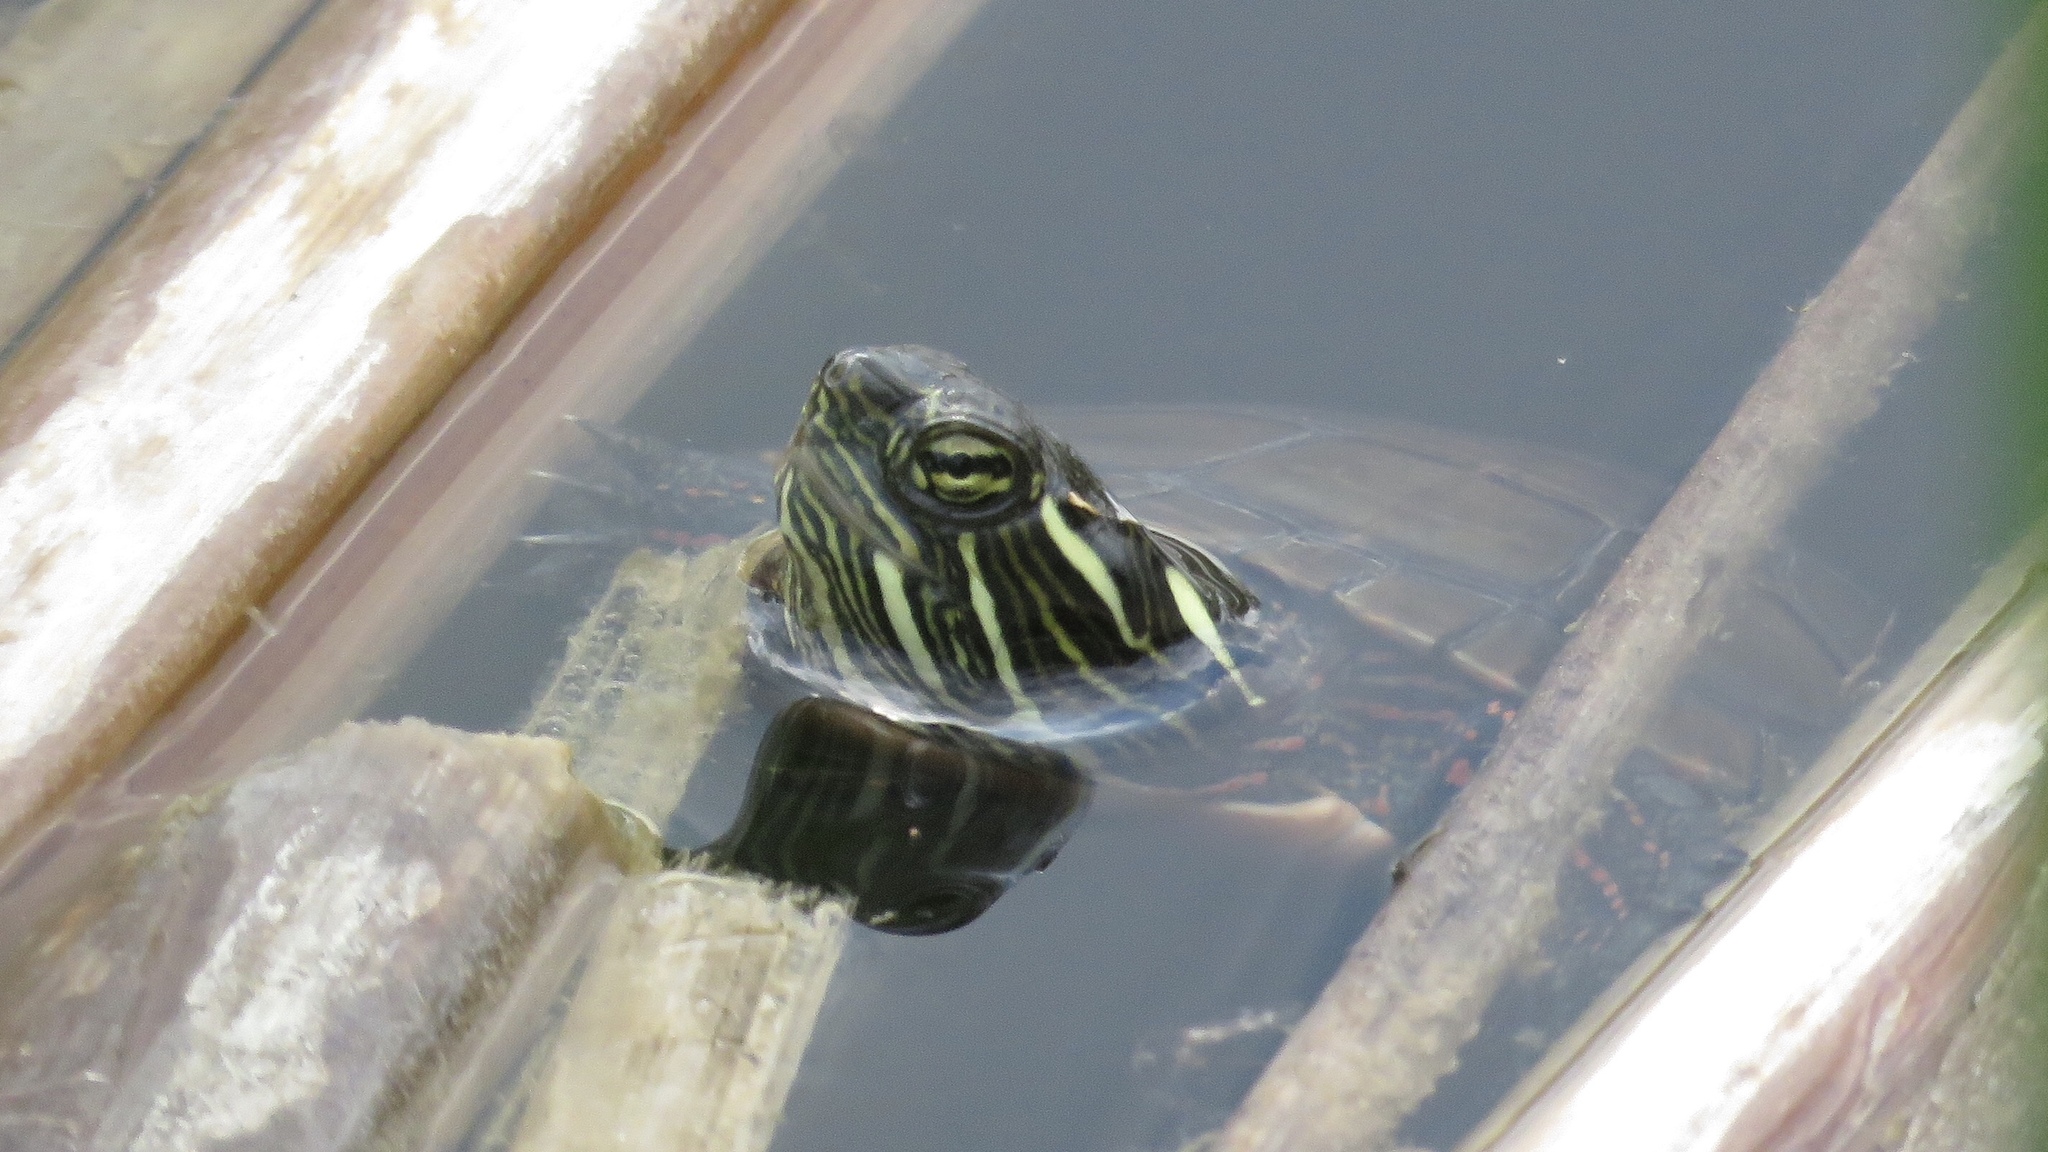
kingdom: Animalia
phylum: Chordata
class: Testudines
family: Emydidae
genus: Chrysemys
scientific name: Chrysemys picta
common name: Painted turtle
